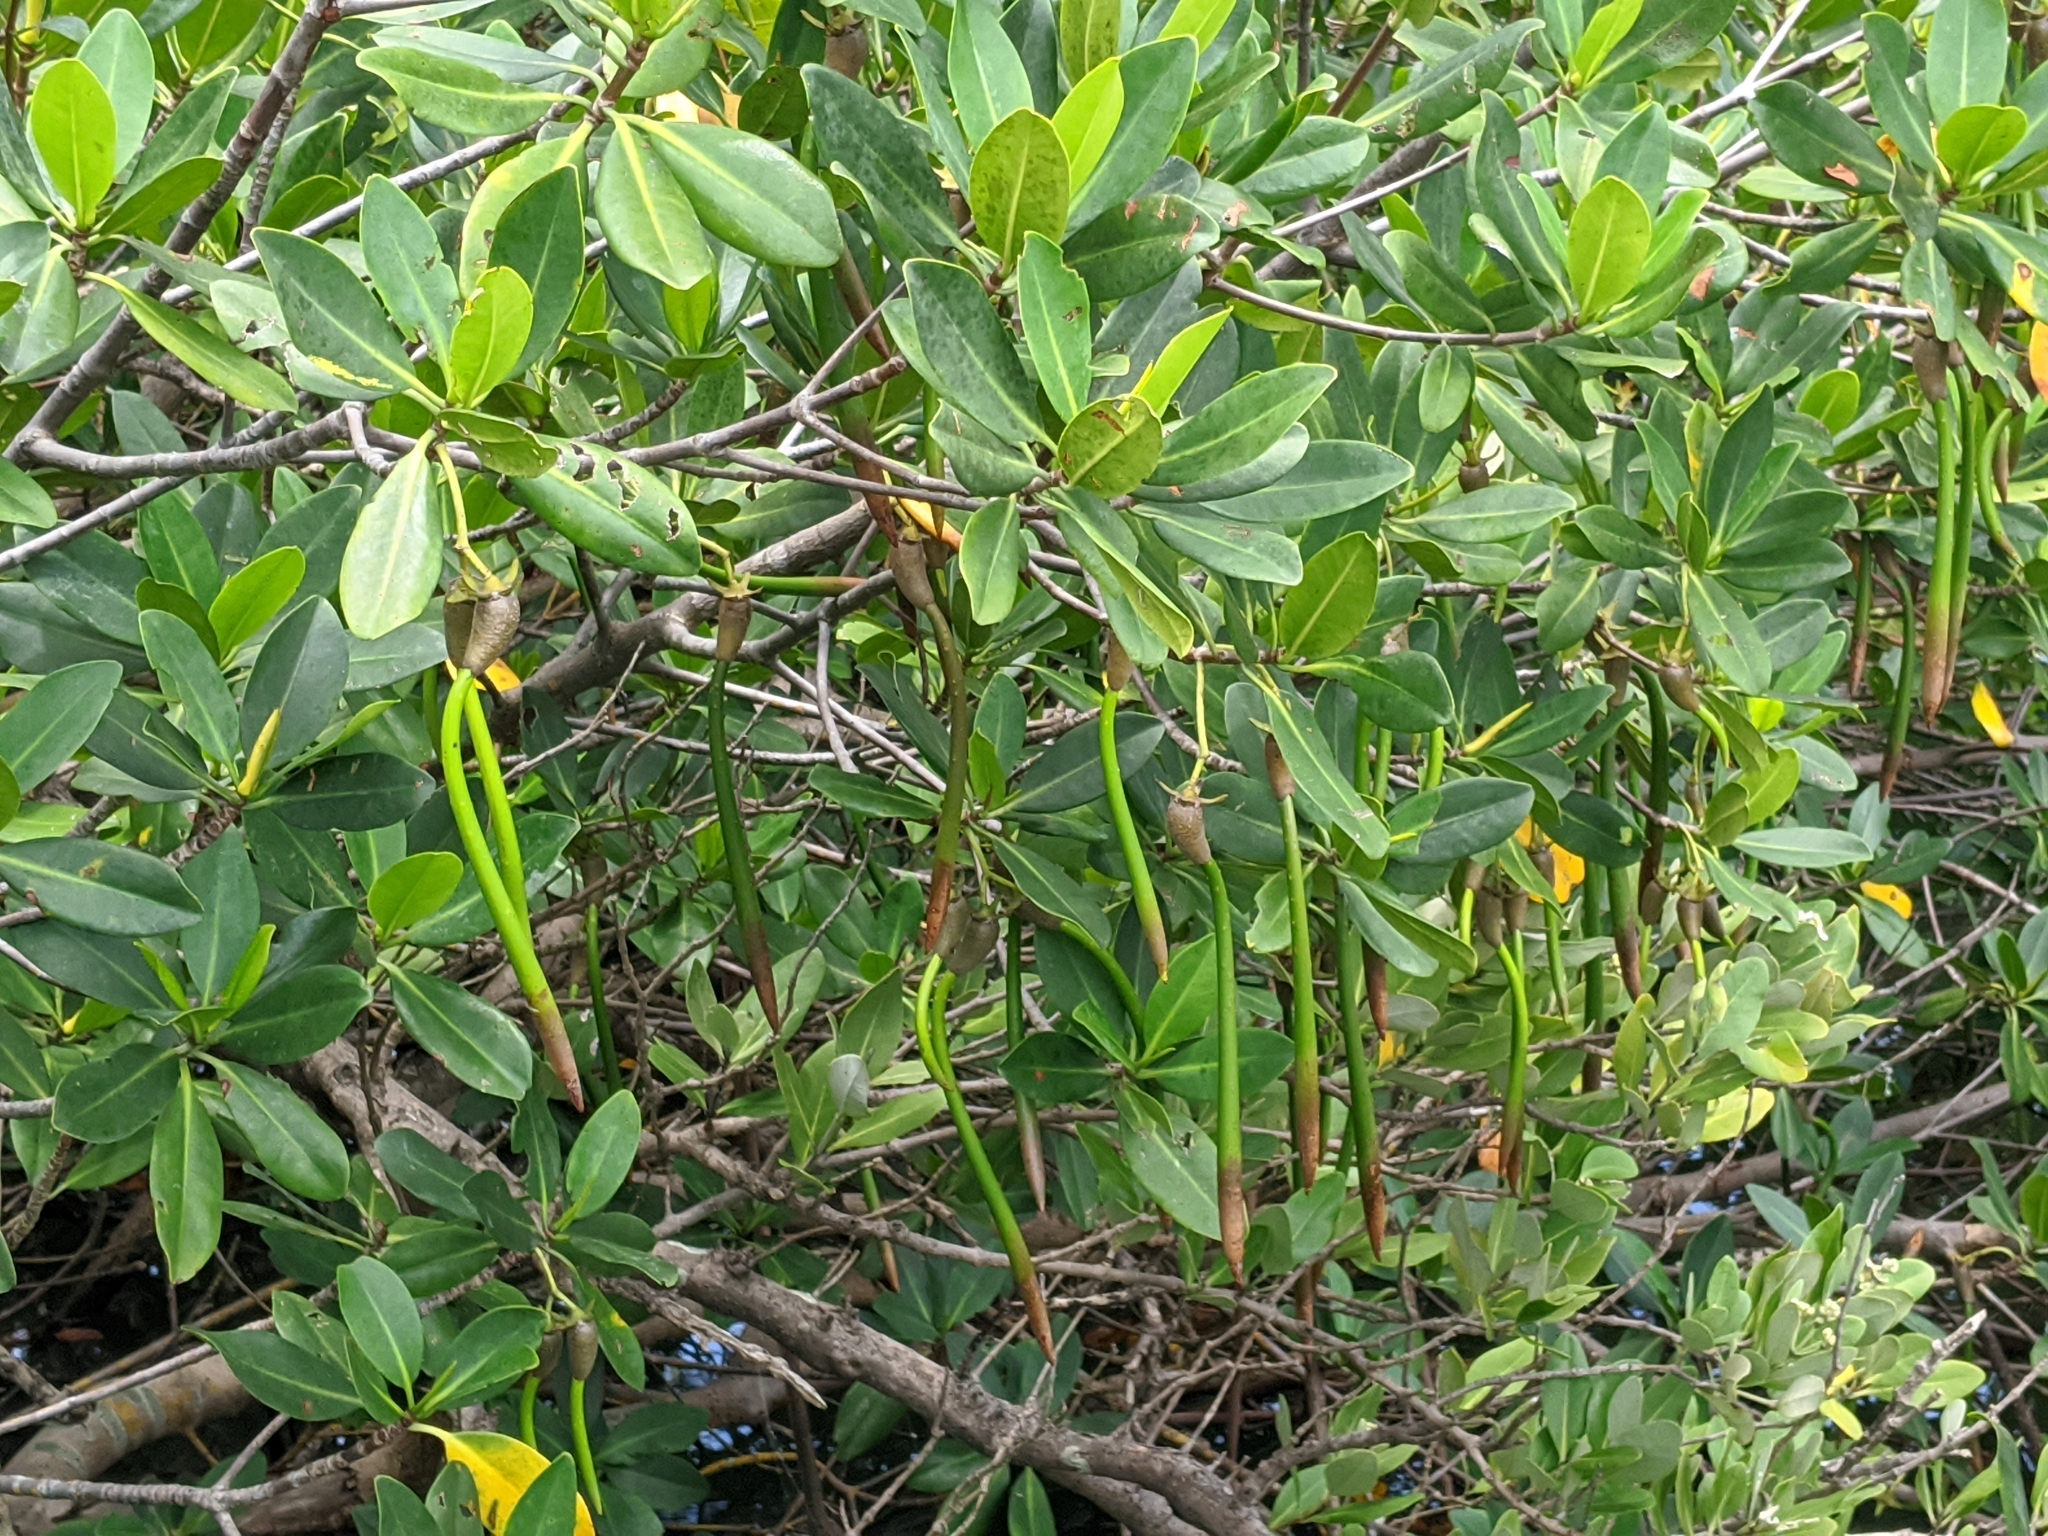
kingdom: Plantae
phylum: Tracheophyta
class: Magnoliopsida
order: Malpighiales
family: Rhizophoraceae
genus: Rhizophora
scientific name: Rhizophora mangle
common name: Red mangrove
